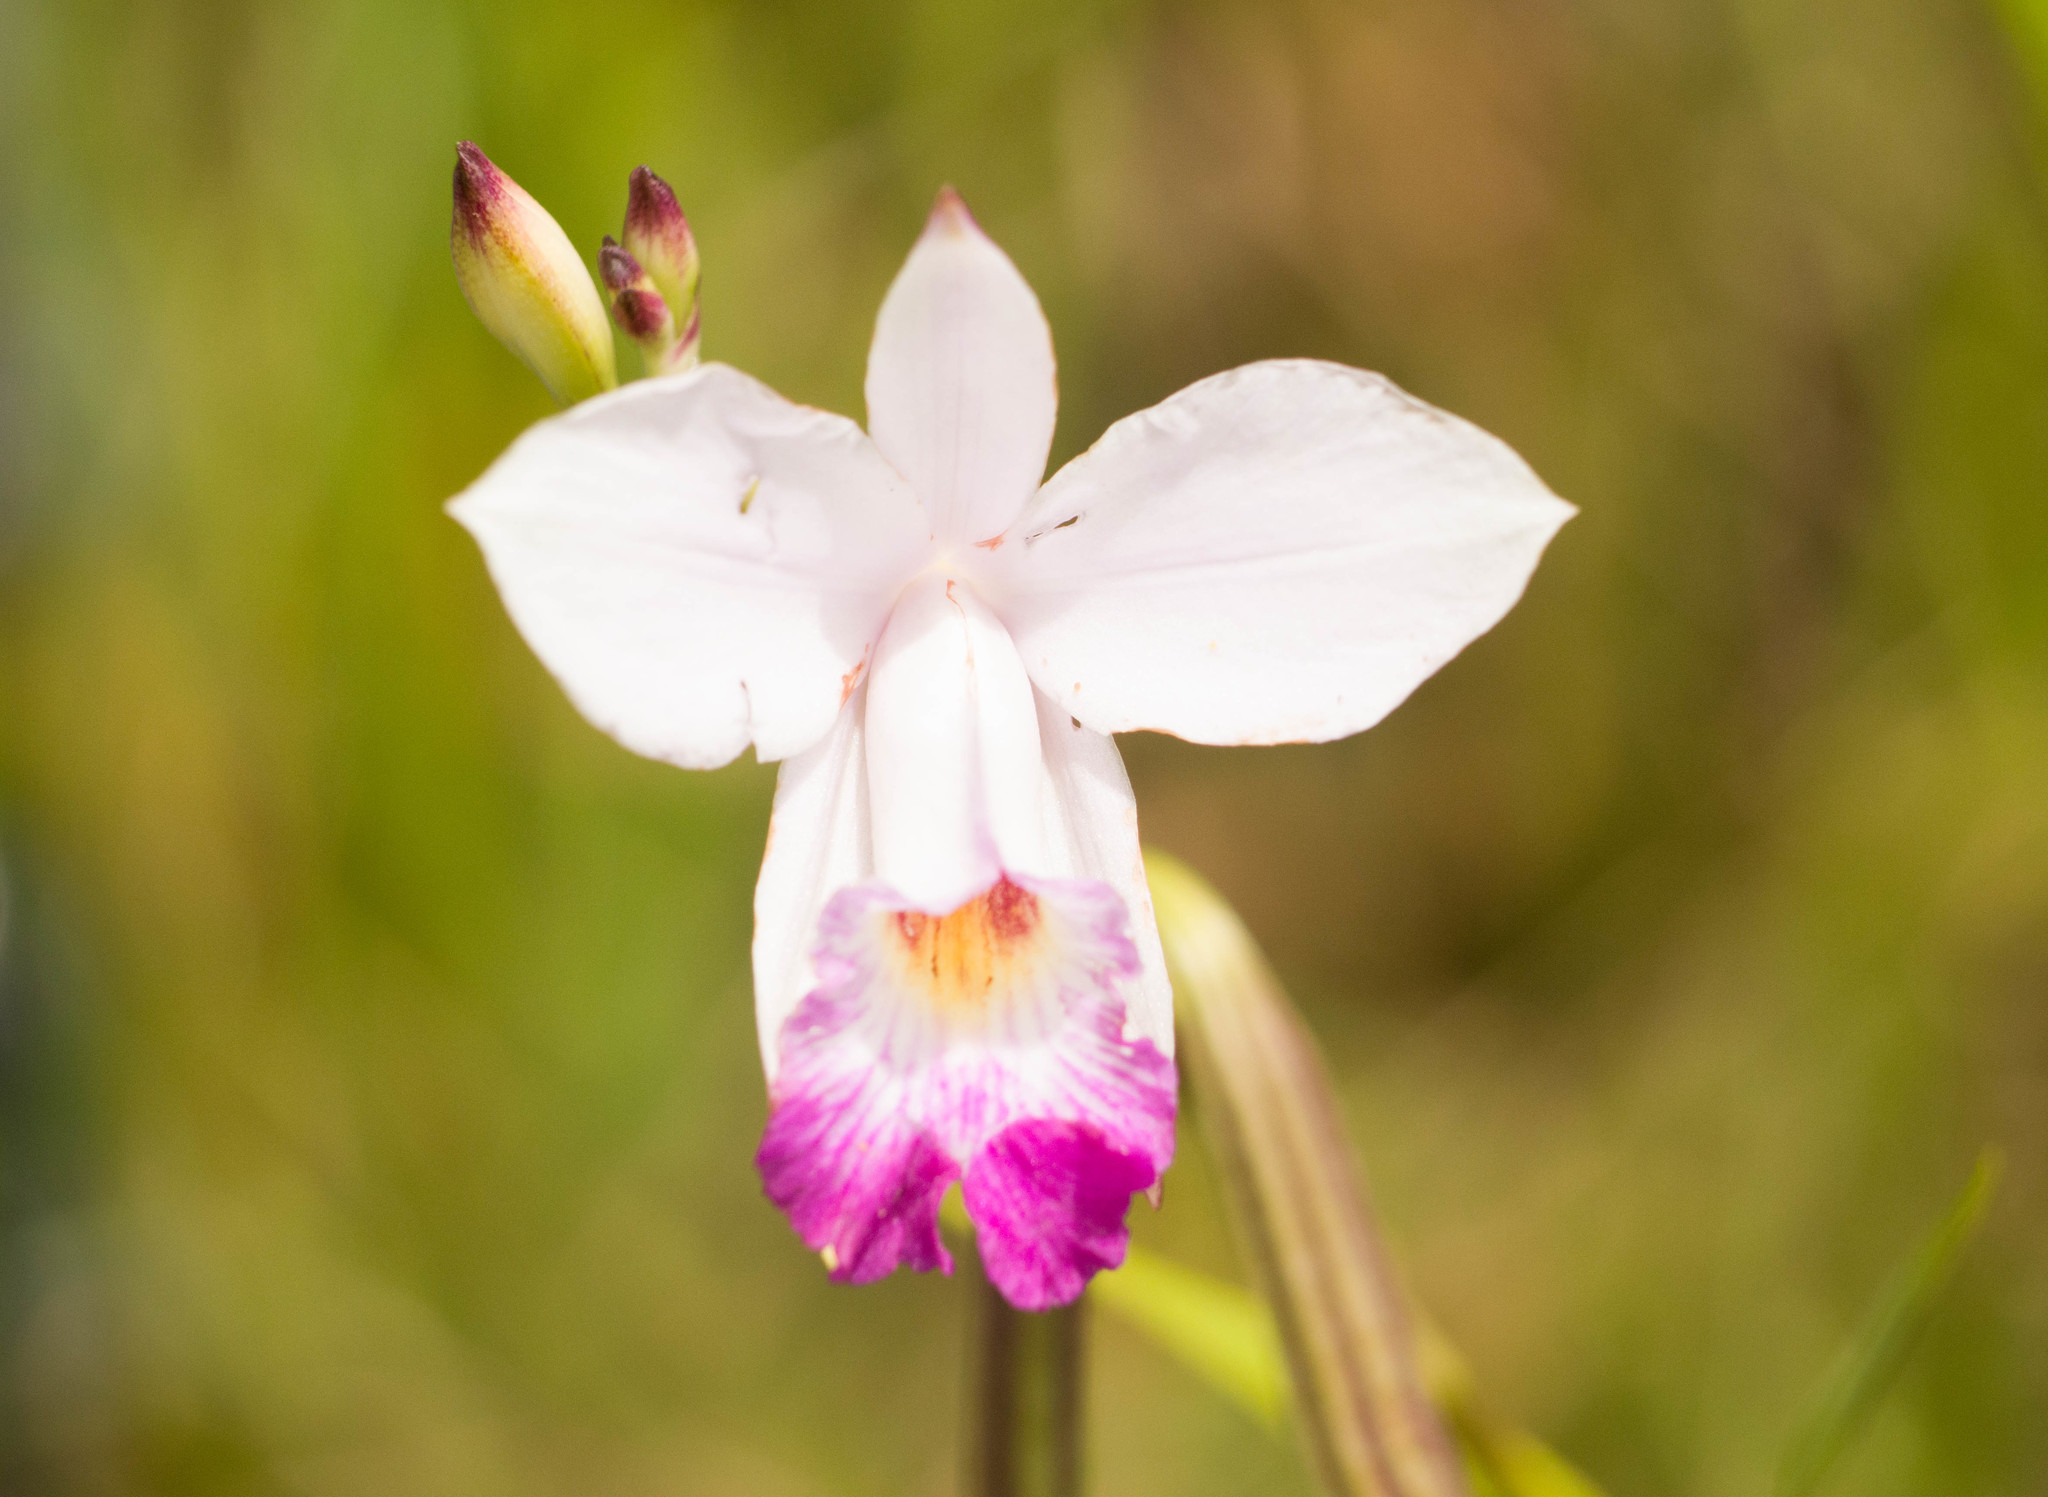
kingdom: Plantae
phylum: Tracheophyta
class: Liliopsida
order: Asparagales
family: Orchidaceae
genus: Arundina
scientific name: Arundina graminifolia
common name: Bamboo orchid
